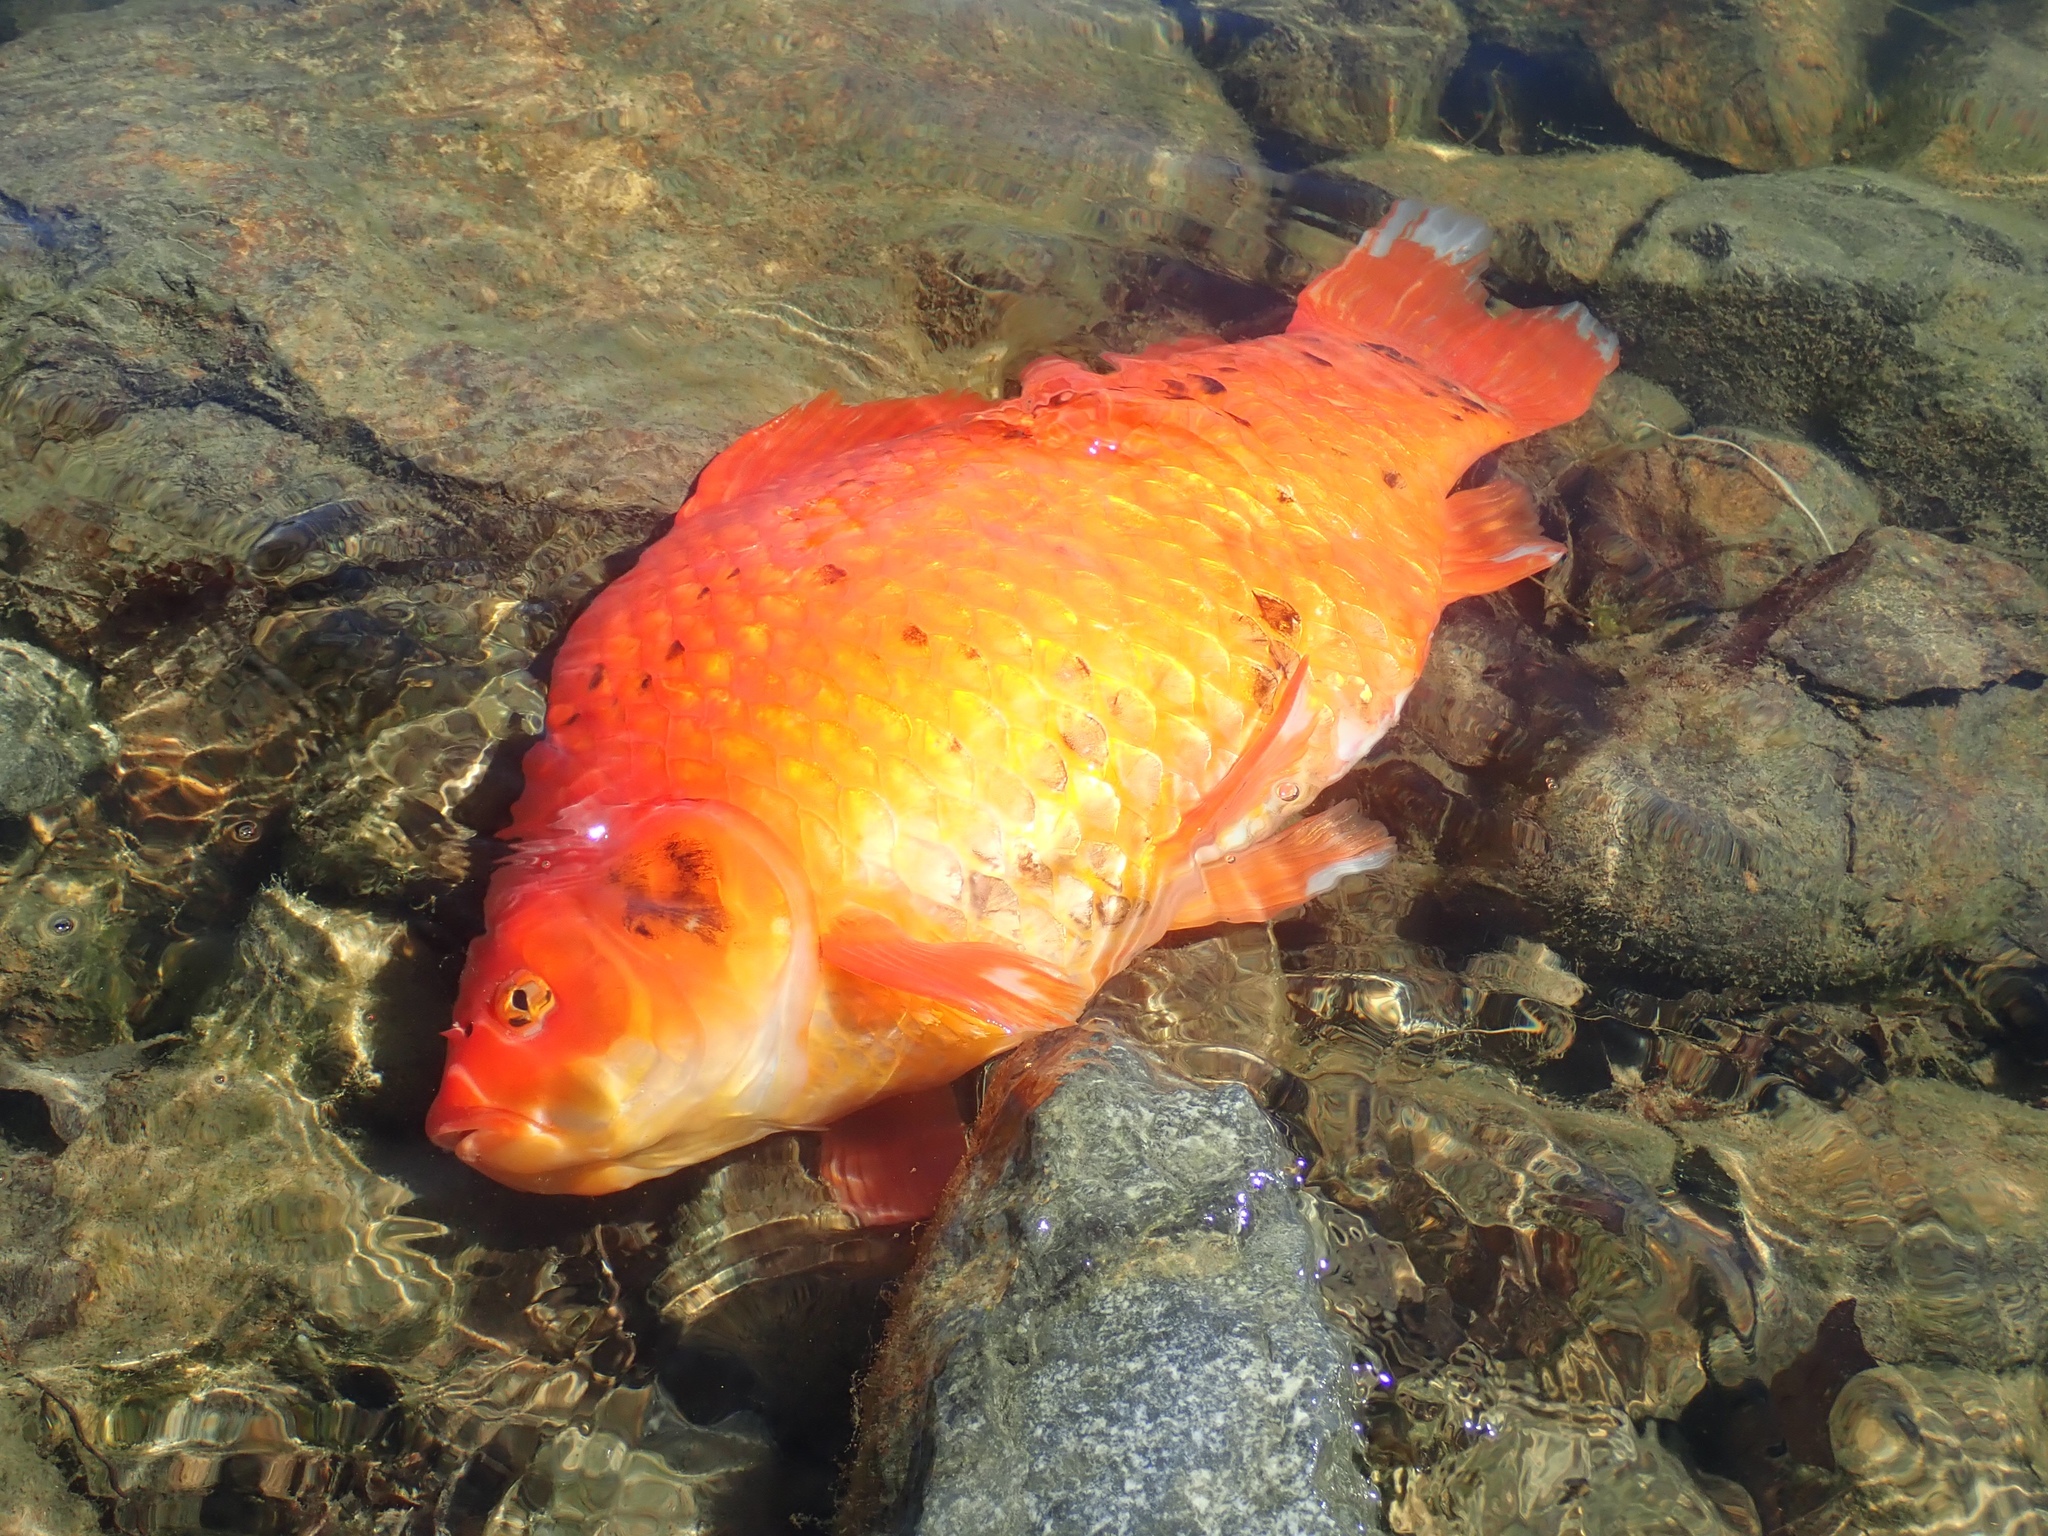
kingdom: Animalia
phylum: Chordata
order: Cypriniformes
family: Cyprinidae
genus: Carassius
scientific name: Carassius auratus
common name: Goldfish
